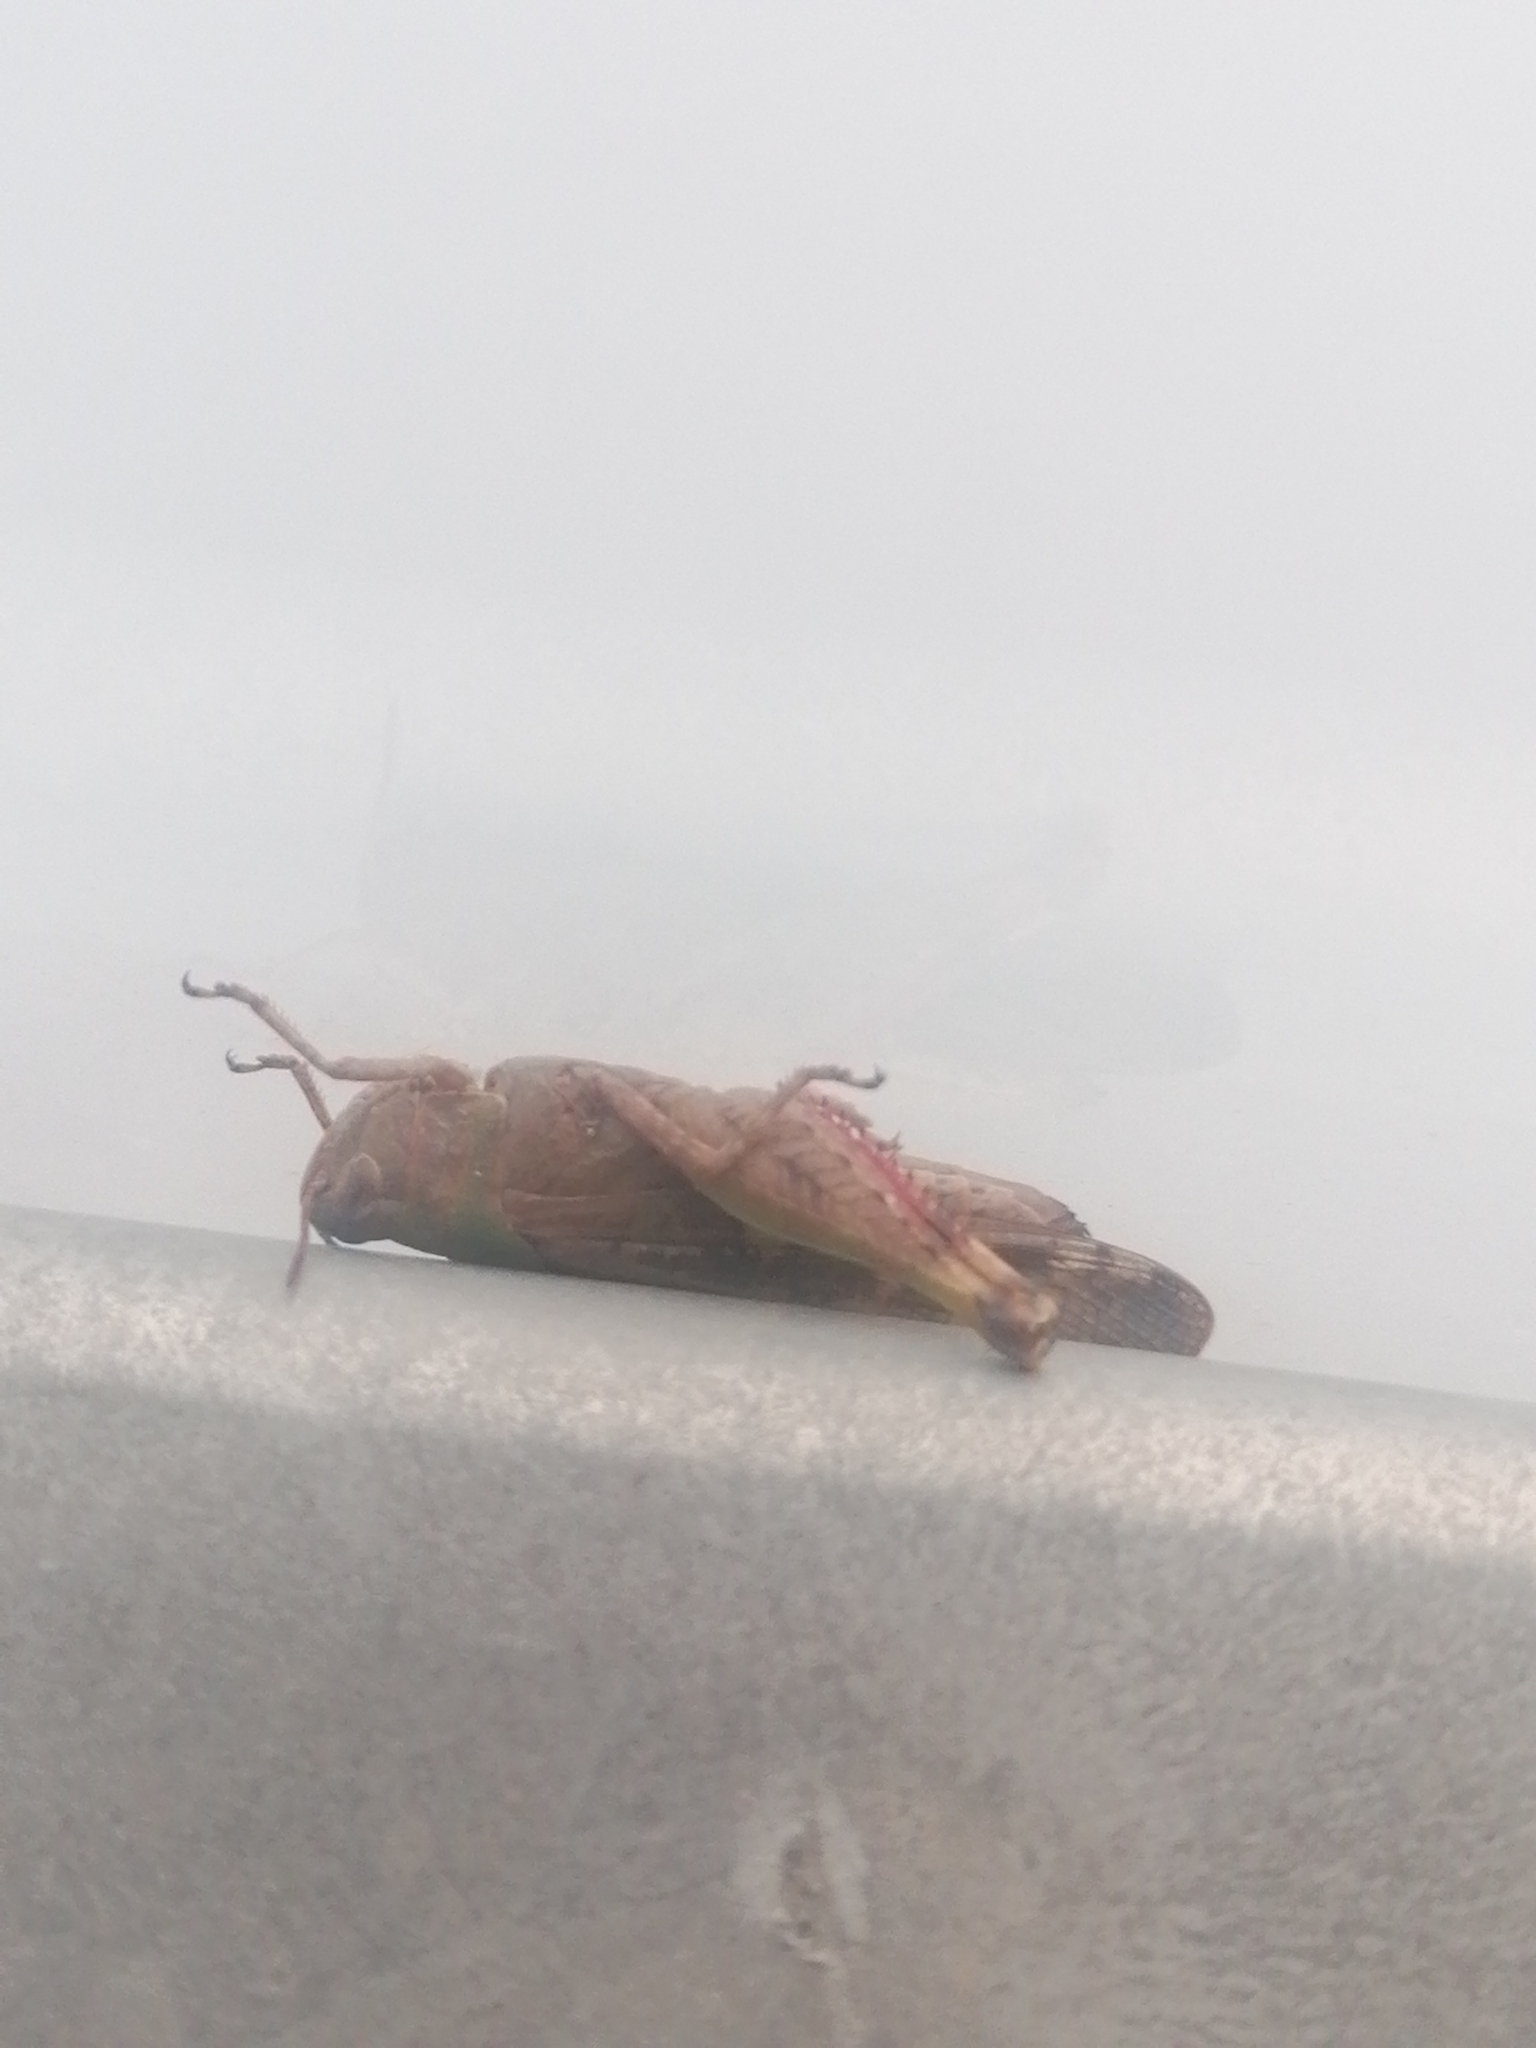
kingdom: Animalia
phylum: Arthropoda
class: Insecta
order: Orthoptera
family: Acrididae
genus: Aiolopus
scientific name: Aiolopus strepens
